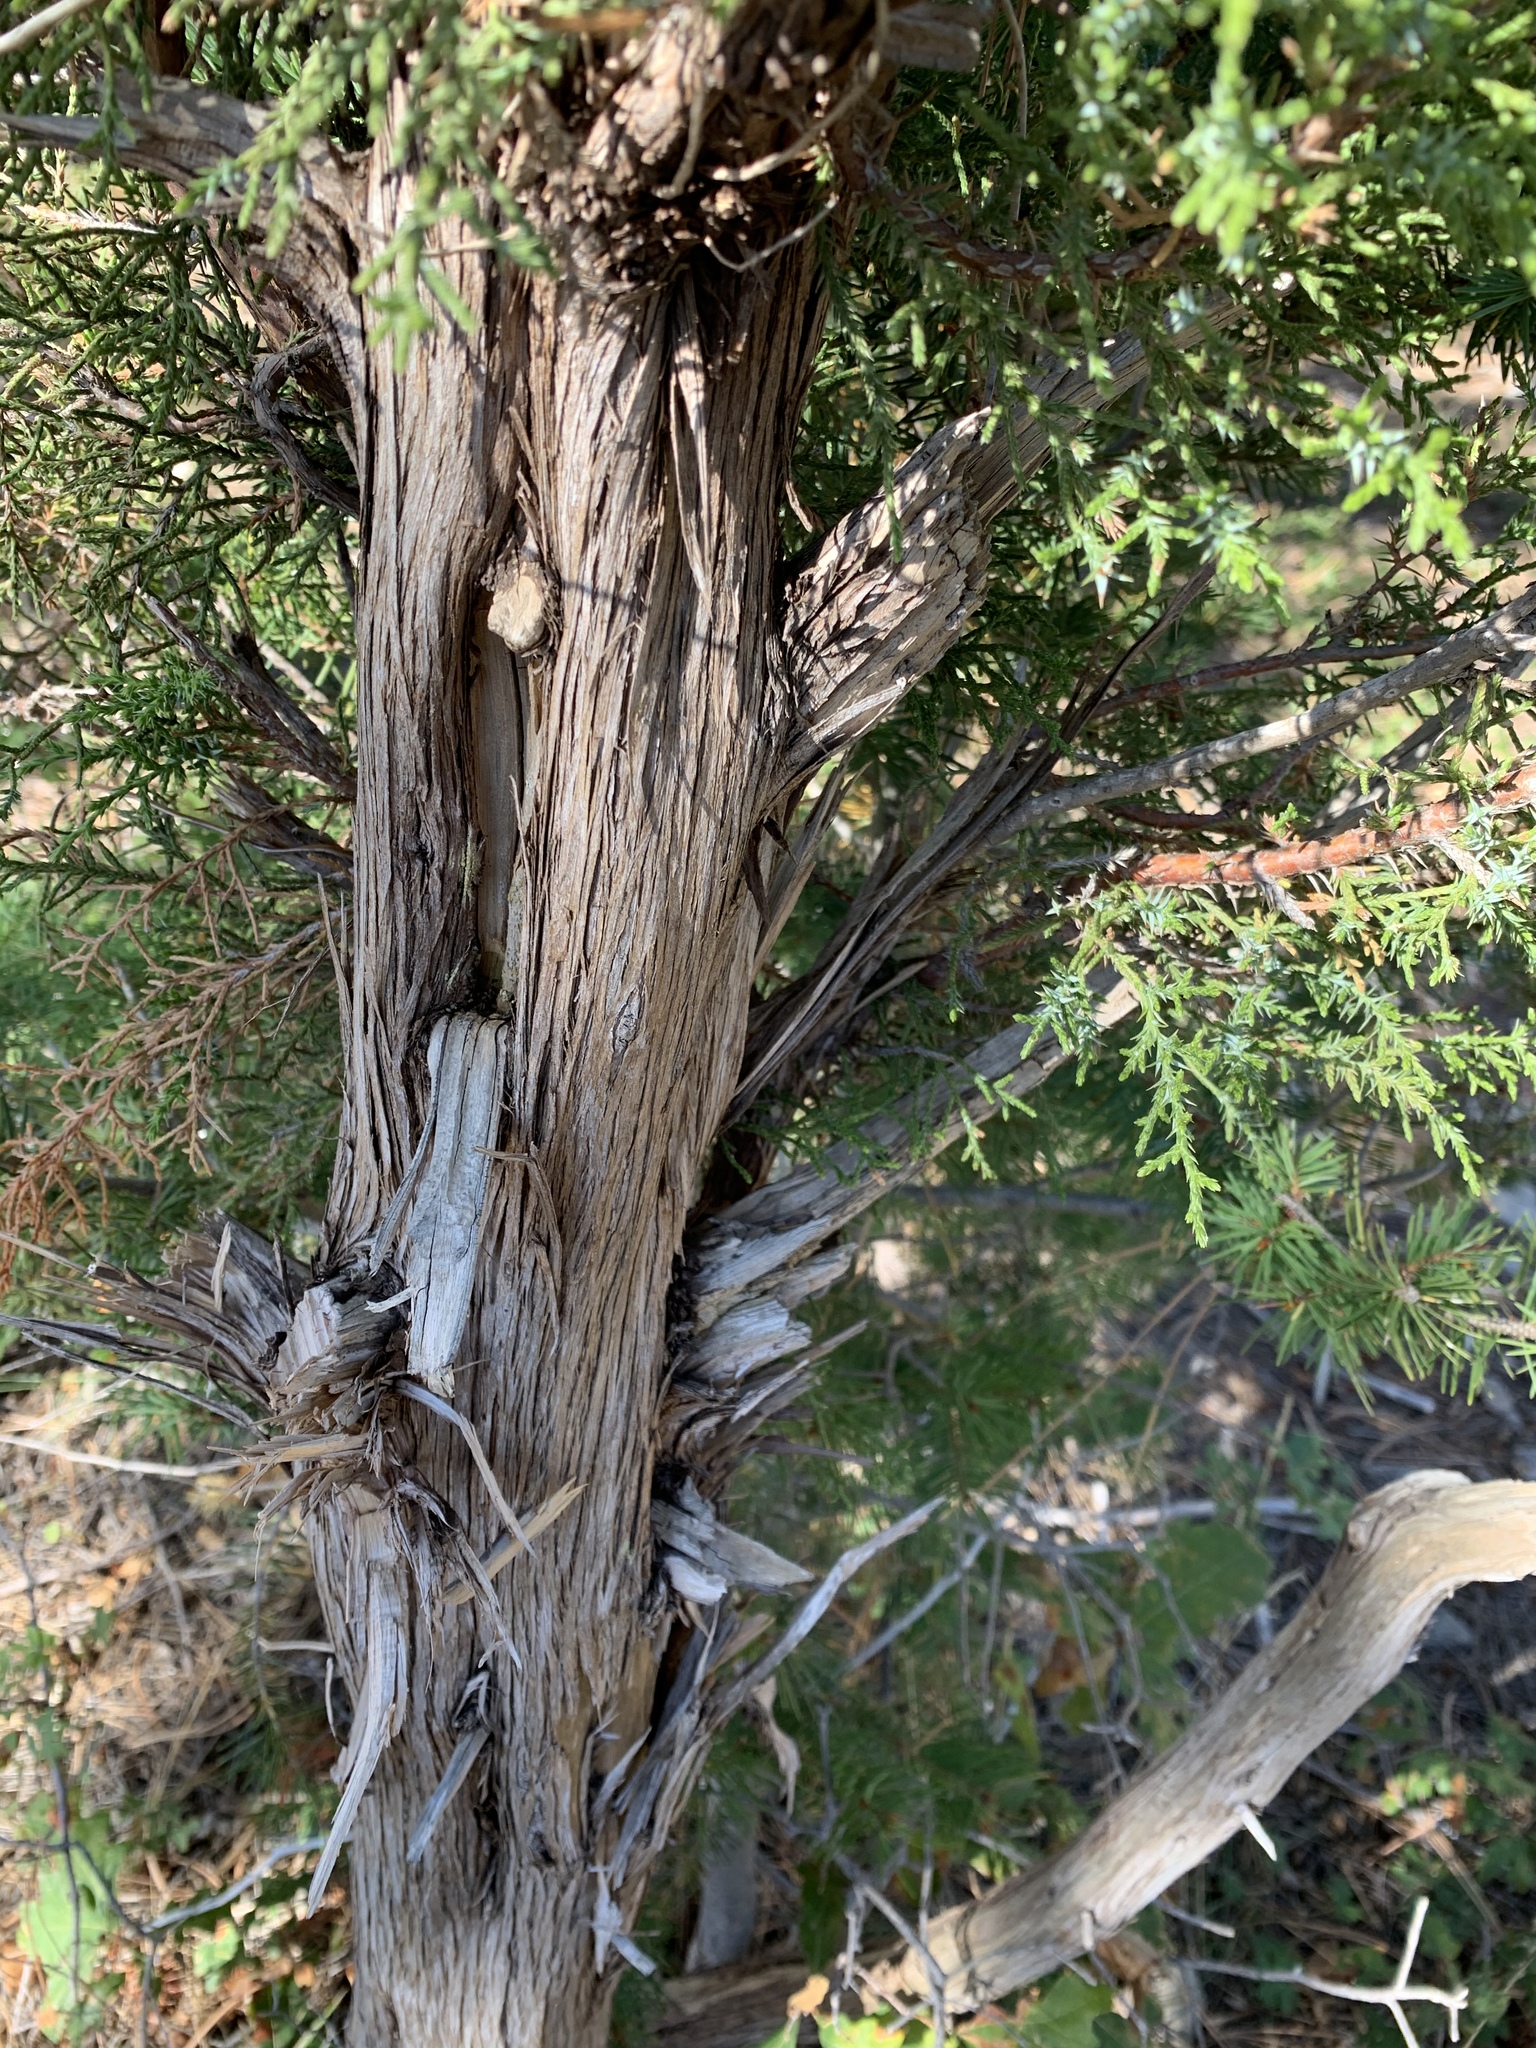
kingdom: Plantae
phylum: Tracheophyta
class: Pinopsida
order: Pinales
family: Cupressaceae
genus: Juniperus
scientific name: Juniperus monosperma
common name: One-seed juniper
